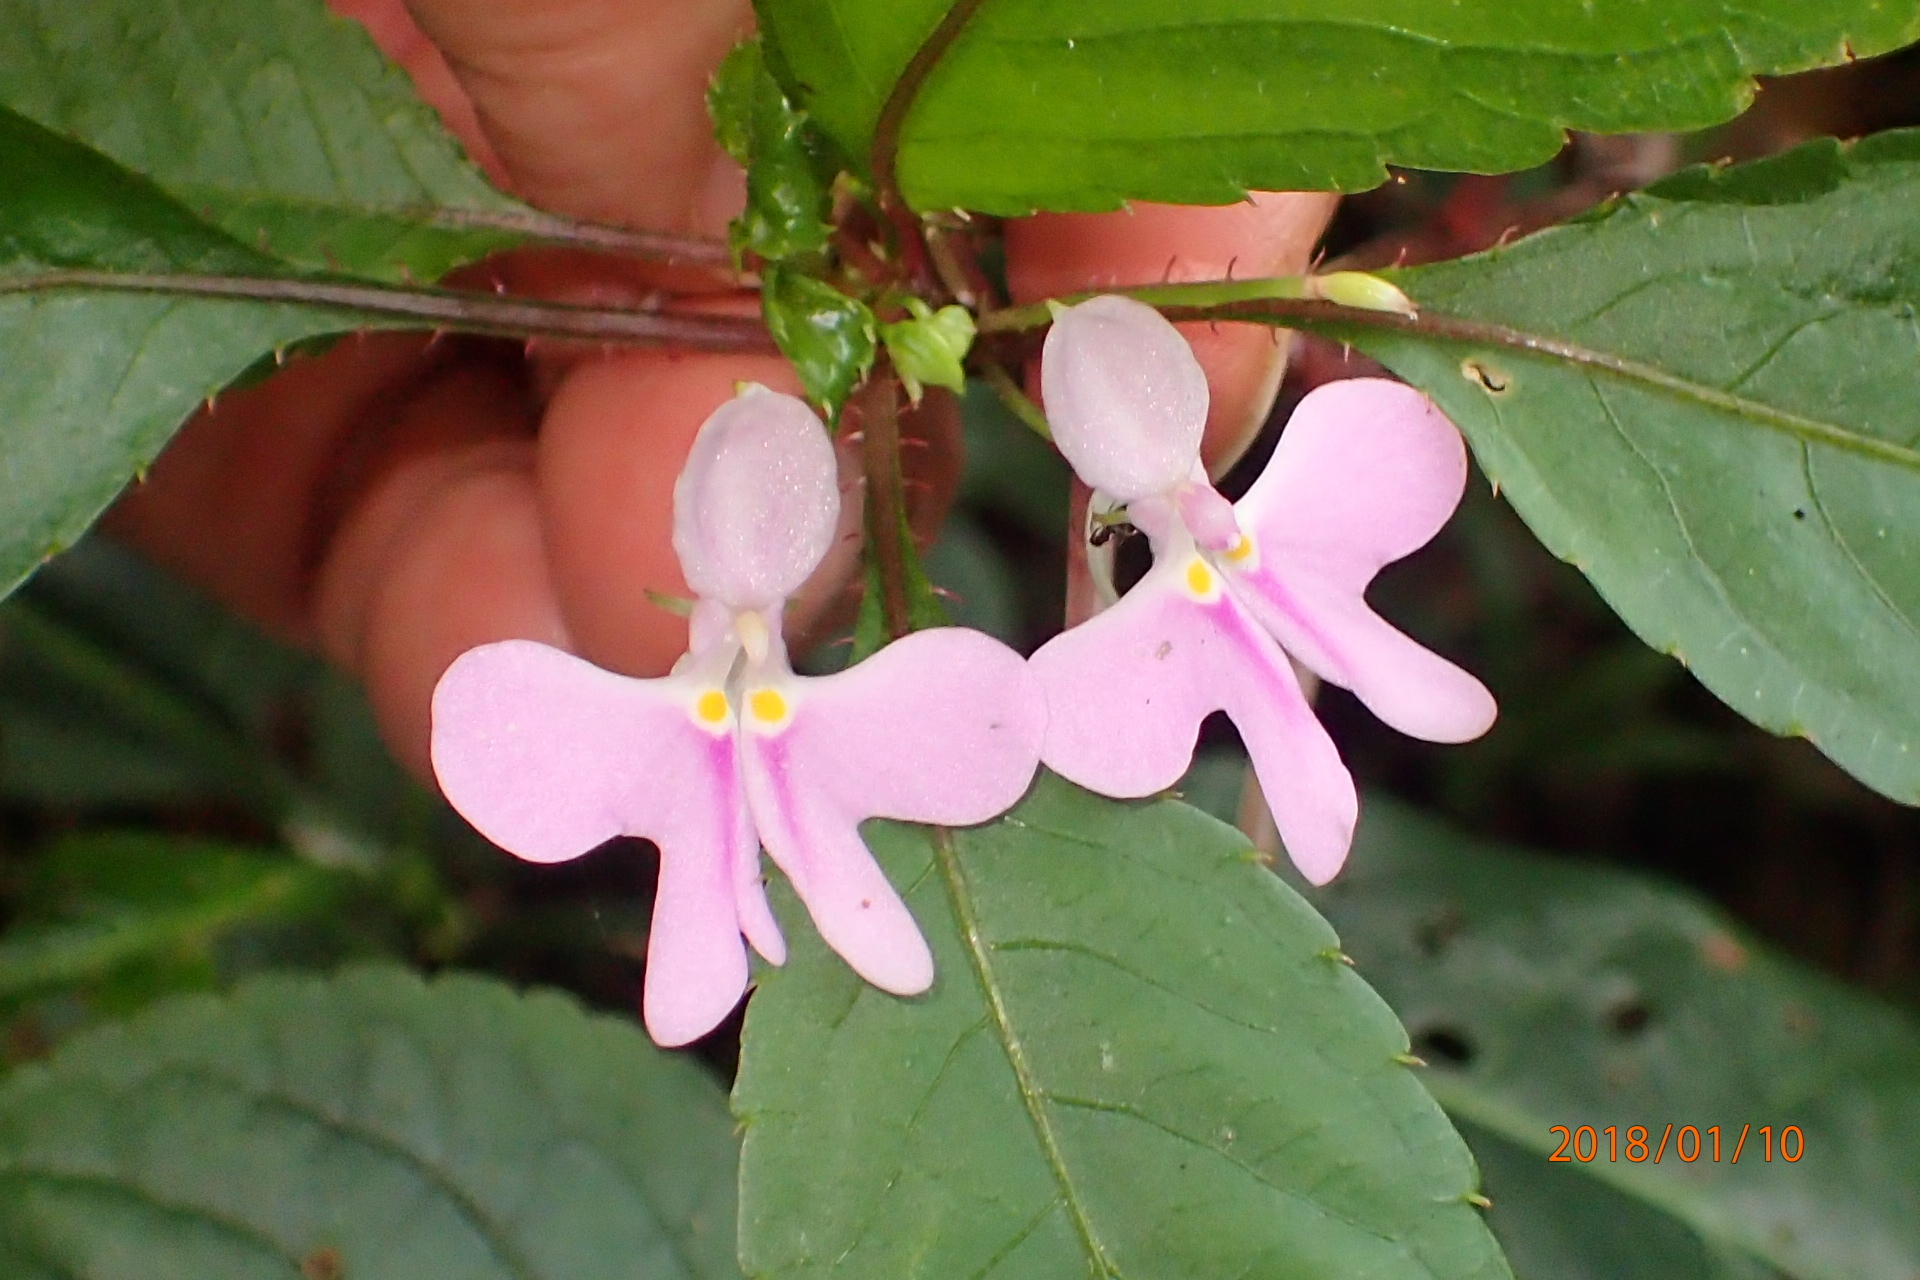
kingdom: Plantae
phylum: Tracheophyta
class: Magnoliopsida
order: Ericales
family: Balsaminaceae
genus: Impatiens
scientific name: Impatiens hochstetteri
